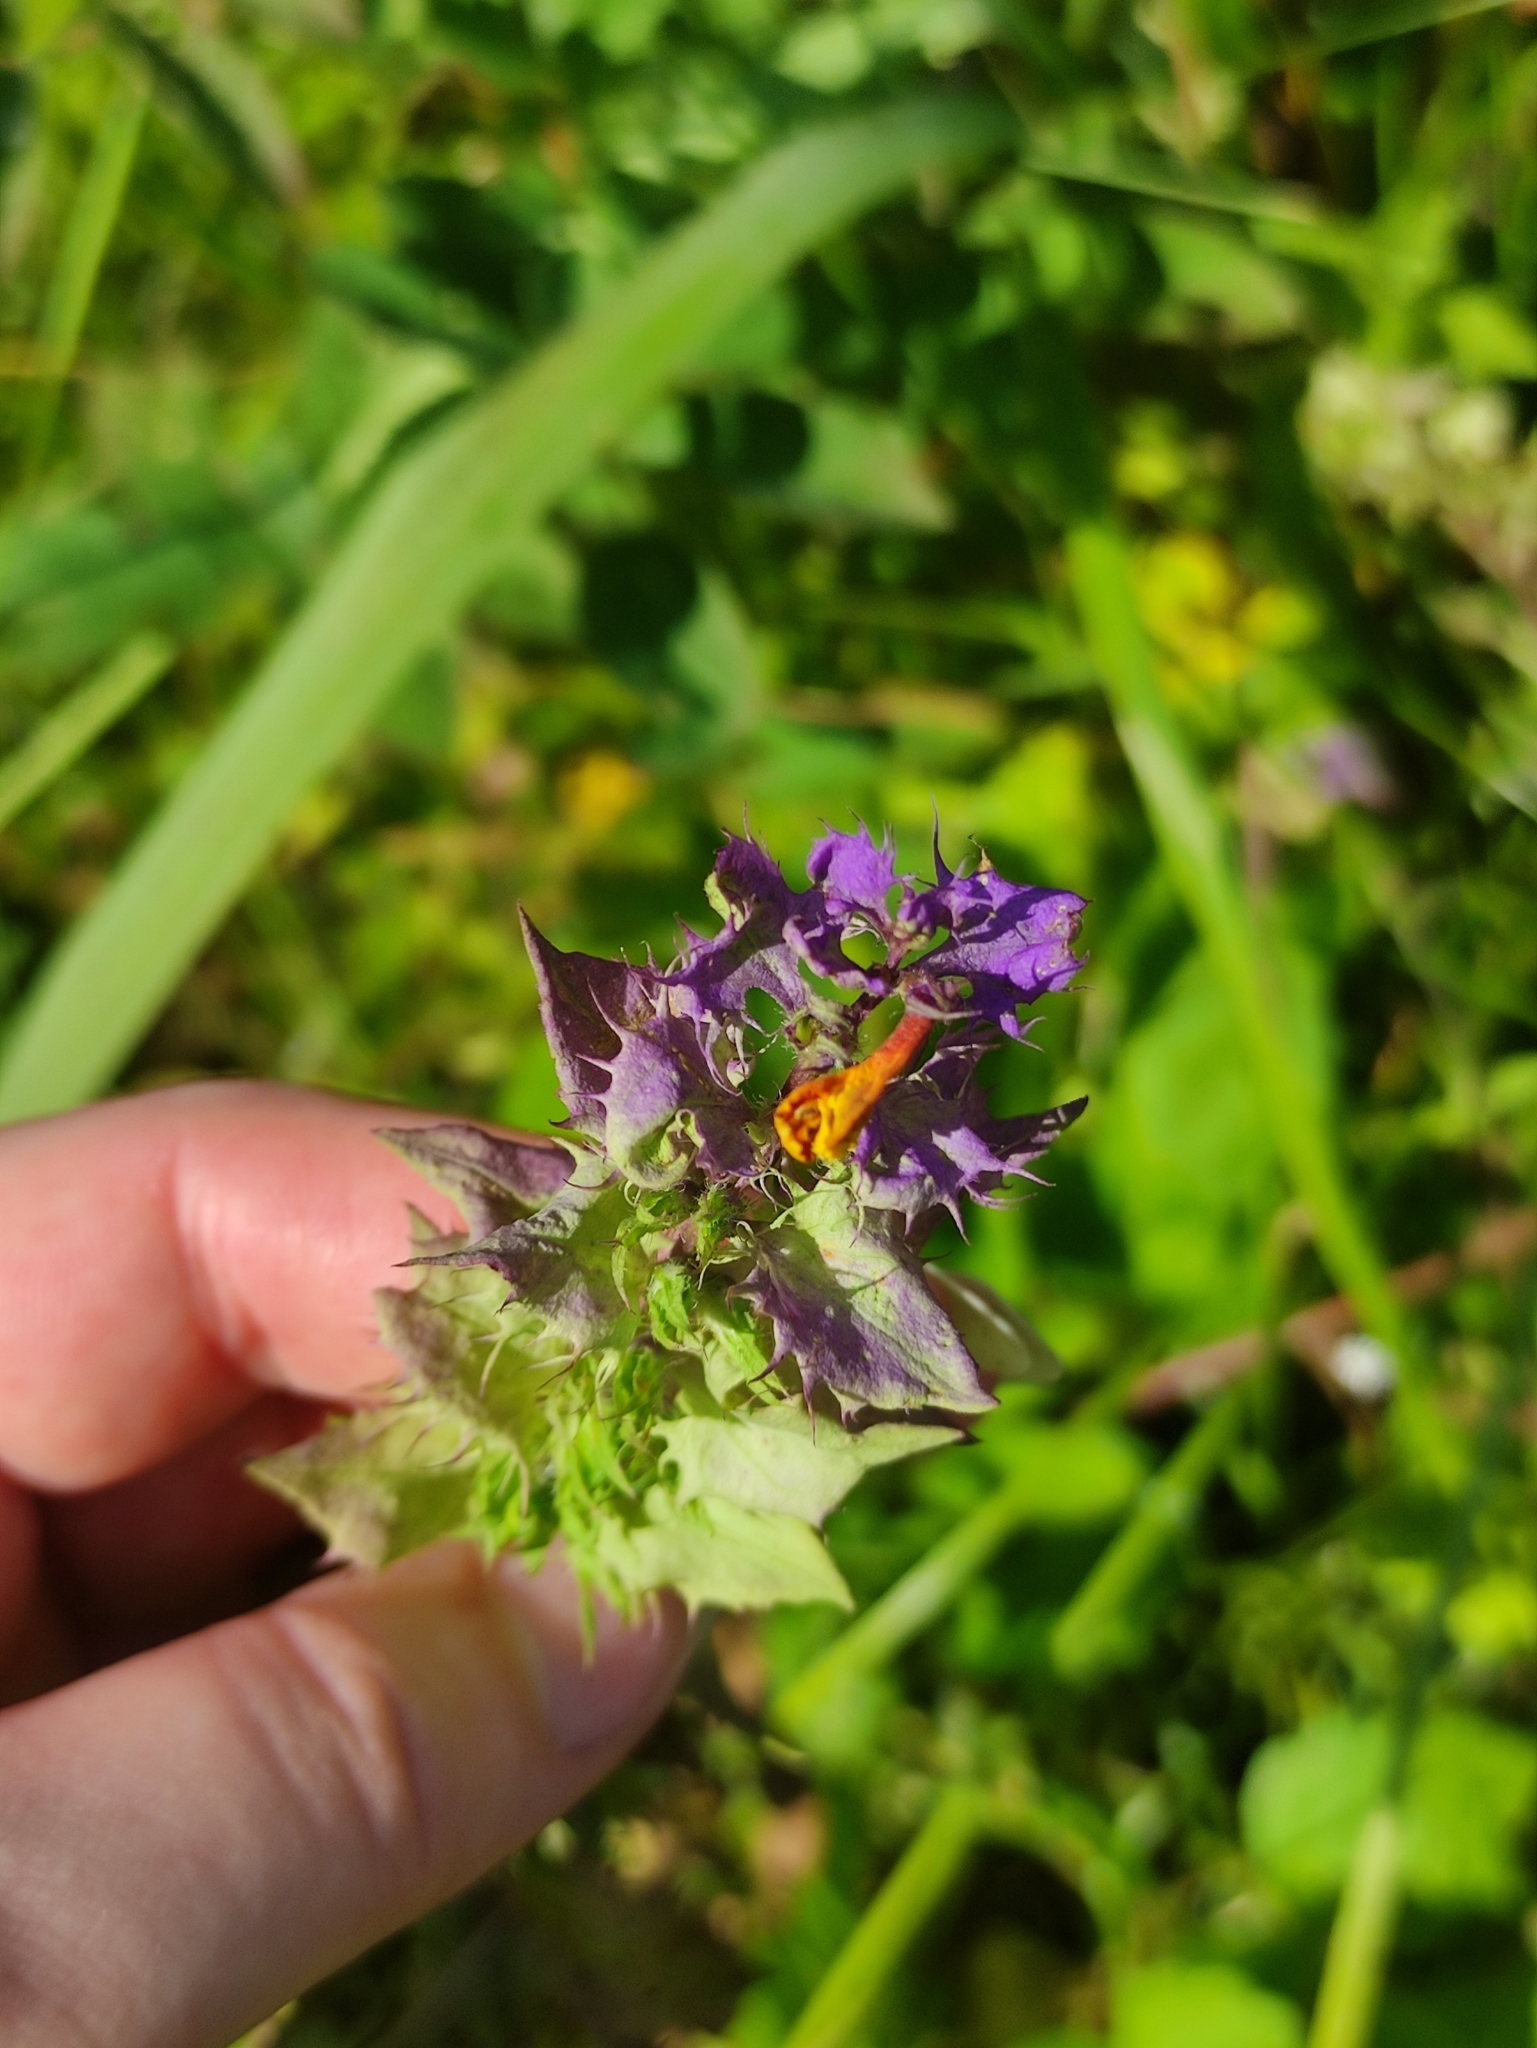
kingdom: Plantae
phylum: Tracheophyta
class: Magnoliopsida
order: Lamiales
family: Orobanchaceae
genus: Melampyrum
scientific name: Melampyrum nemorosum
